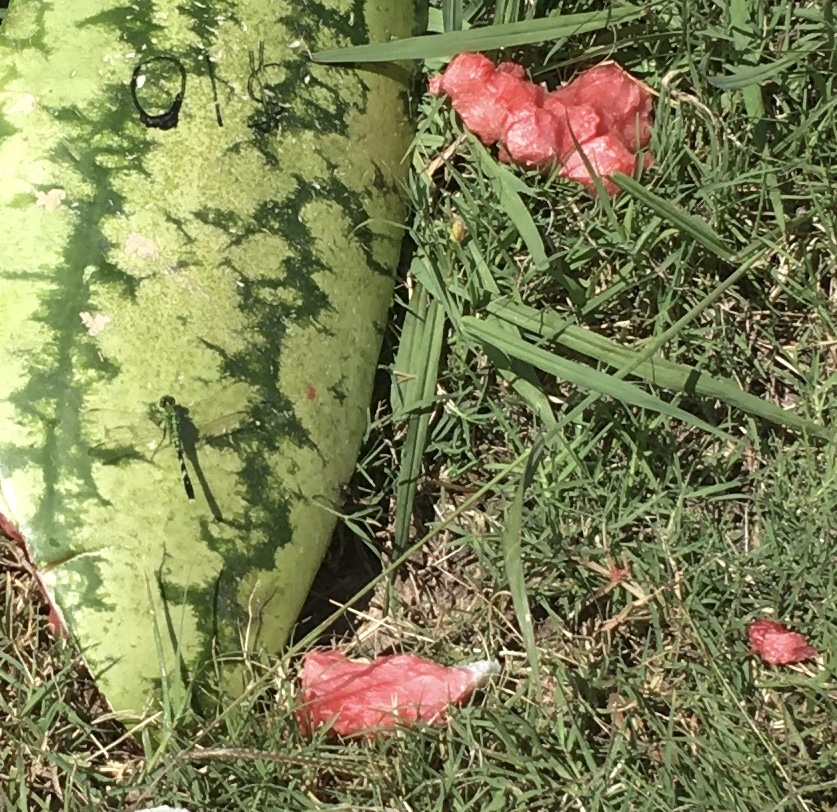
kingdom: Animalia
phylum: Arthropoda
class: Insecta
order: Odonata
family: Libellulidae
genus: Erythemis
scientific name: Erythemis simplicicollis
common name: Eastern pondhawk
